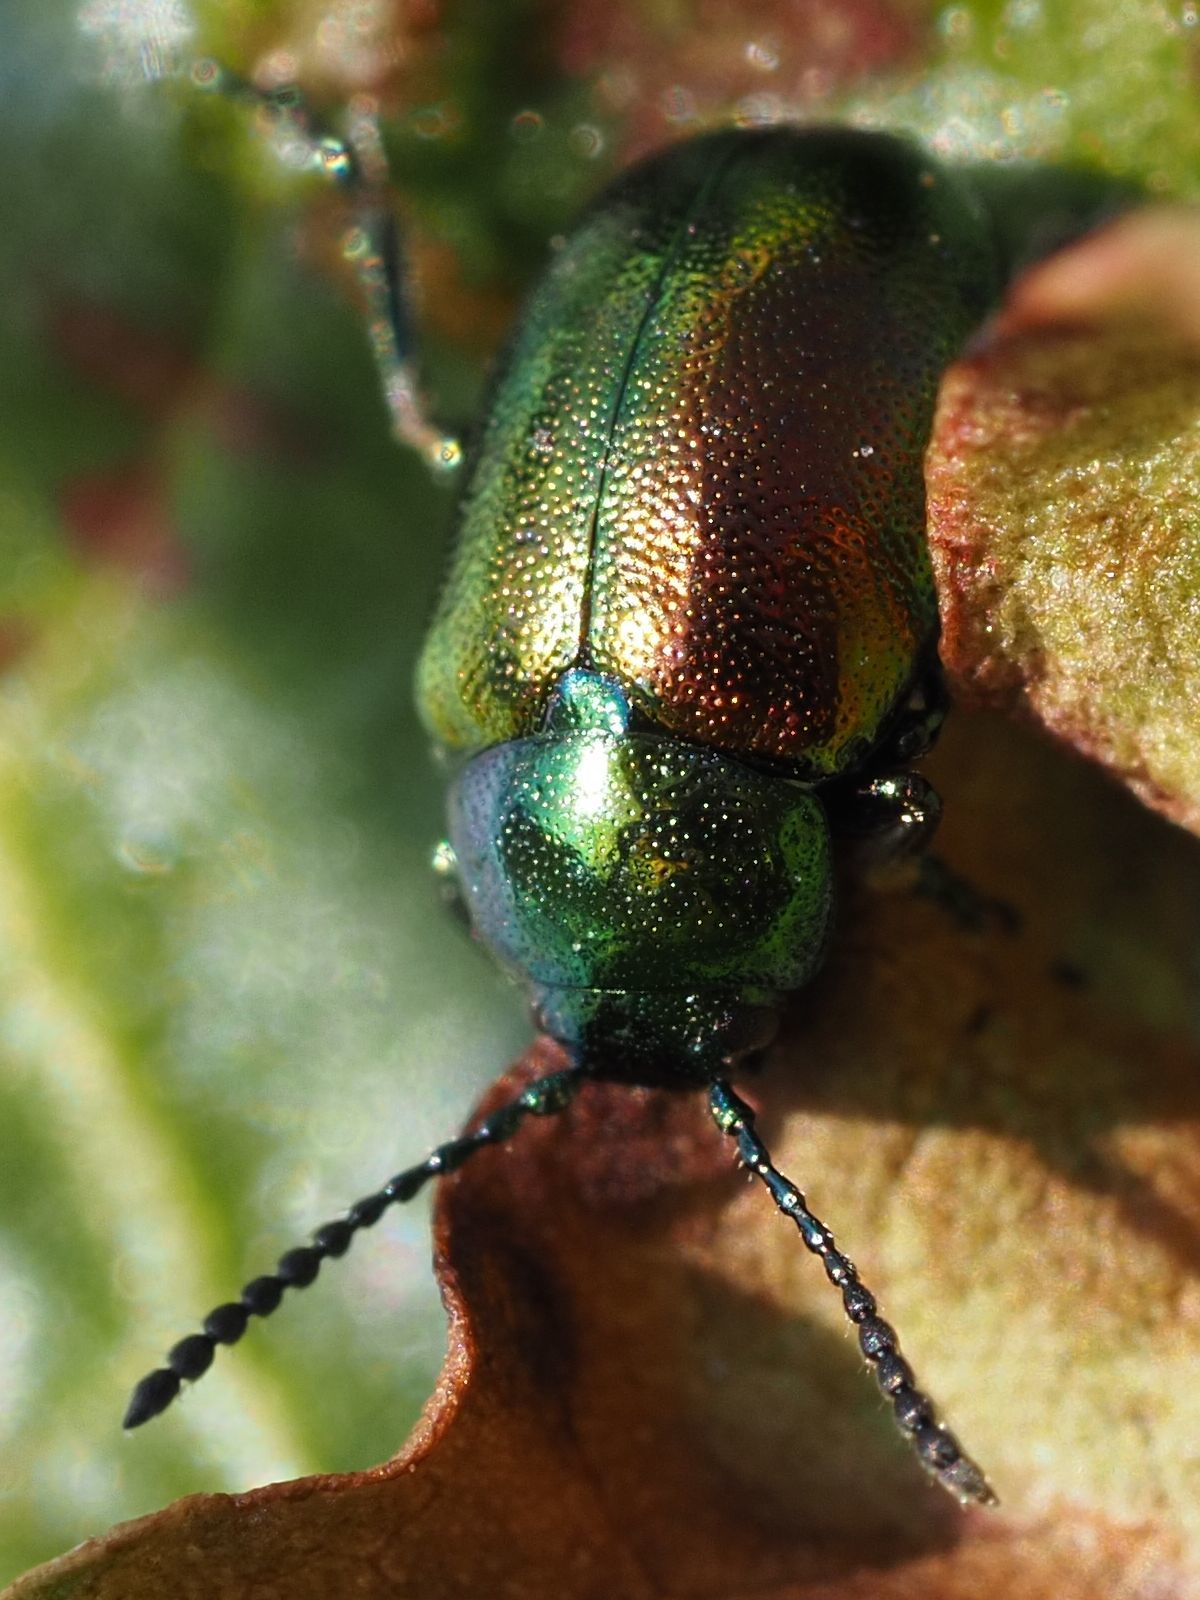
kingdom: Animalia
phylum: Arthropoda
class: Insecta
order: Coleoptera
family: Chrysomelidae
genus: Gastrophysa
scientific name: Gastrophysa viridula
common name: Green dock beetle
